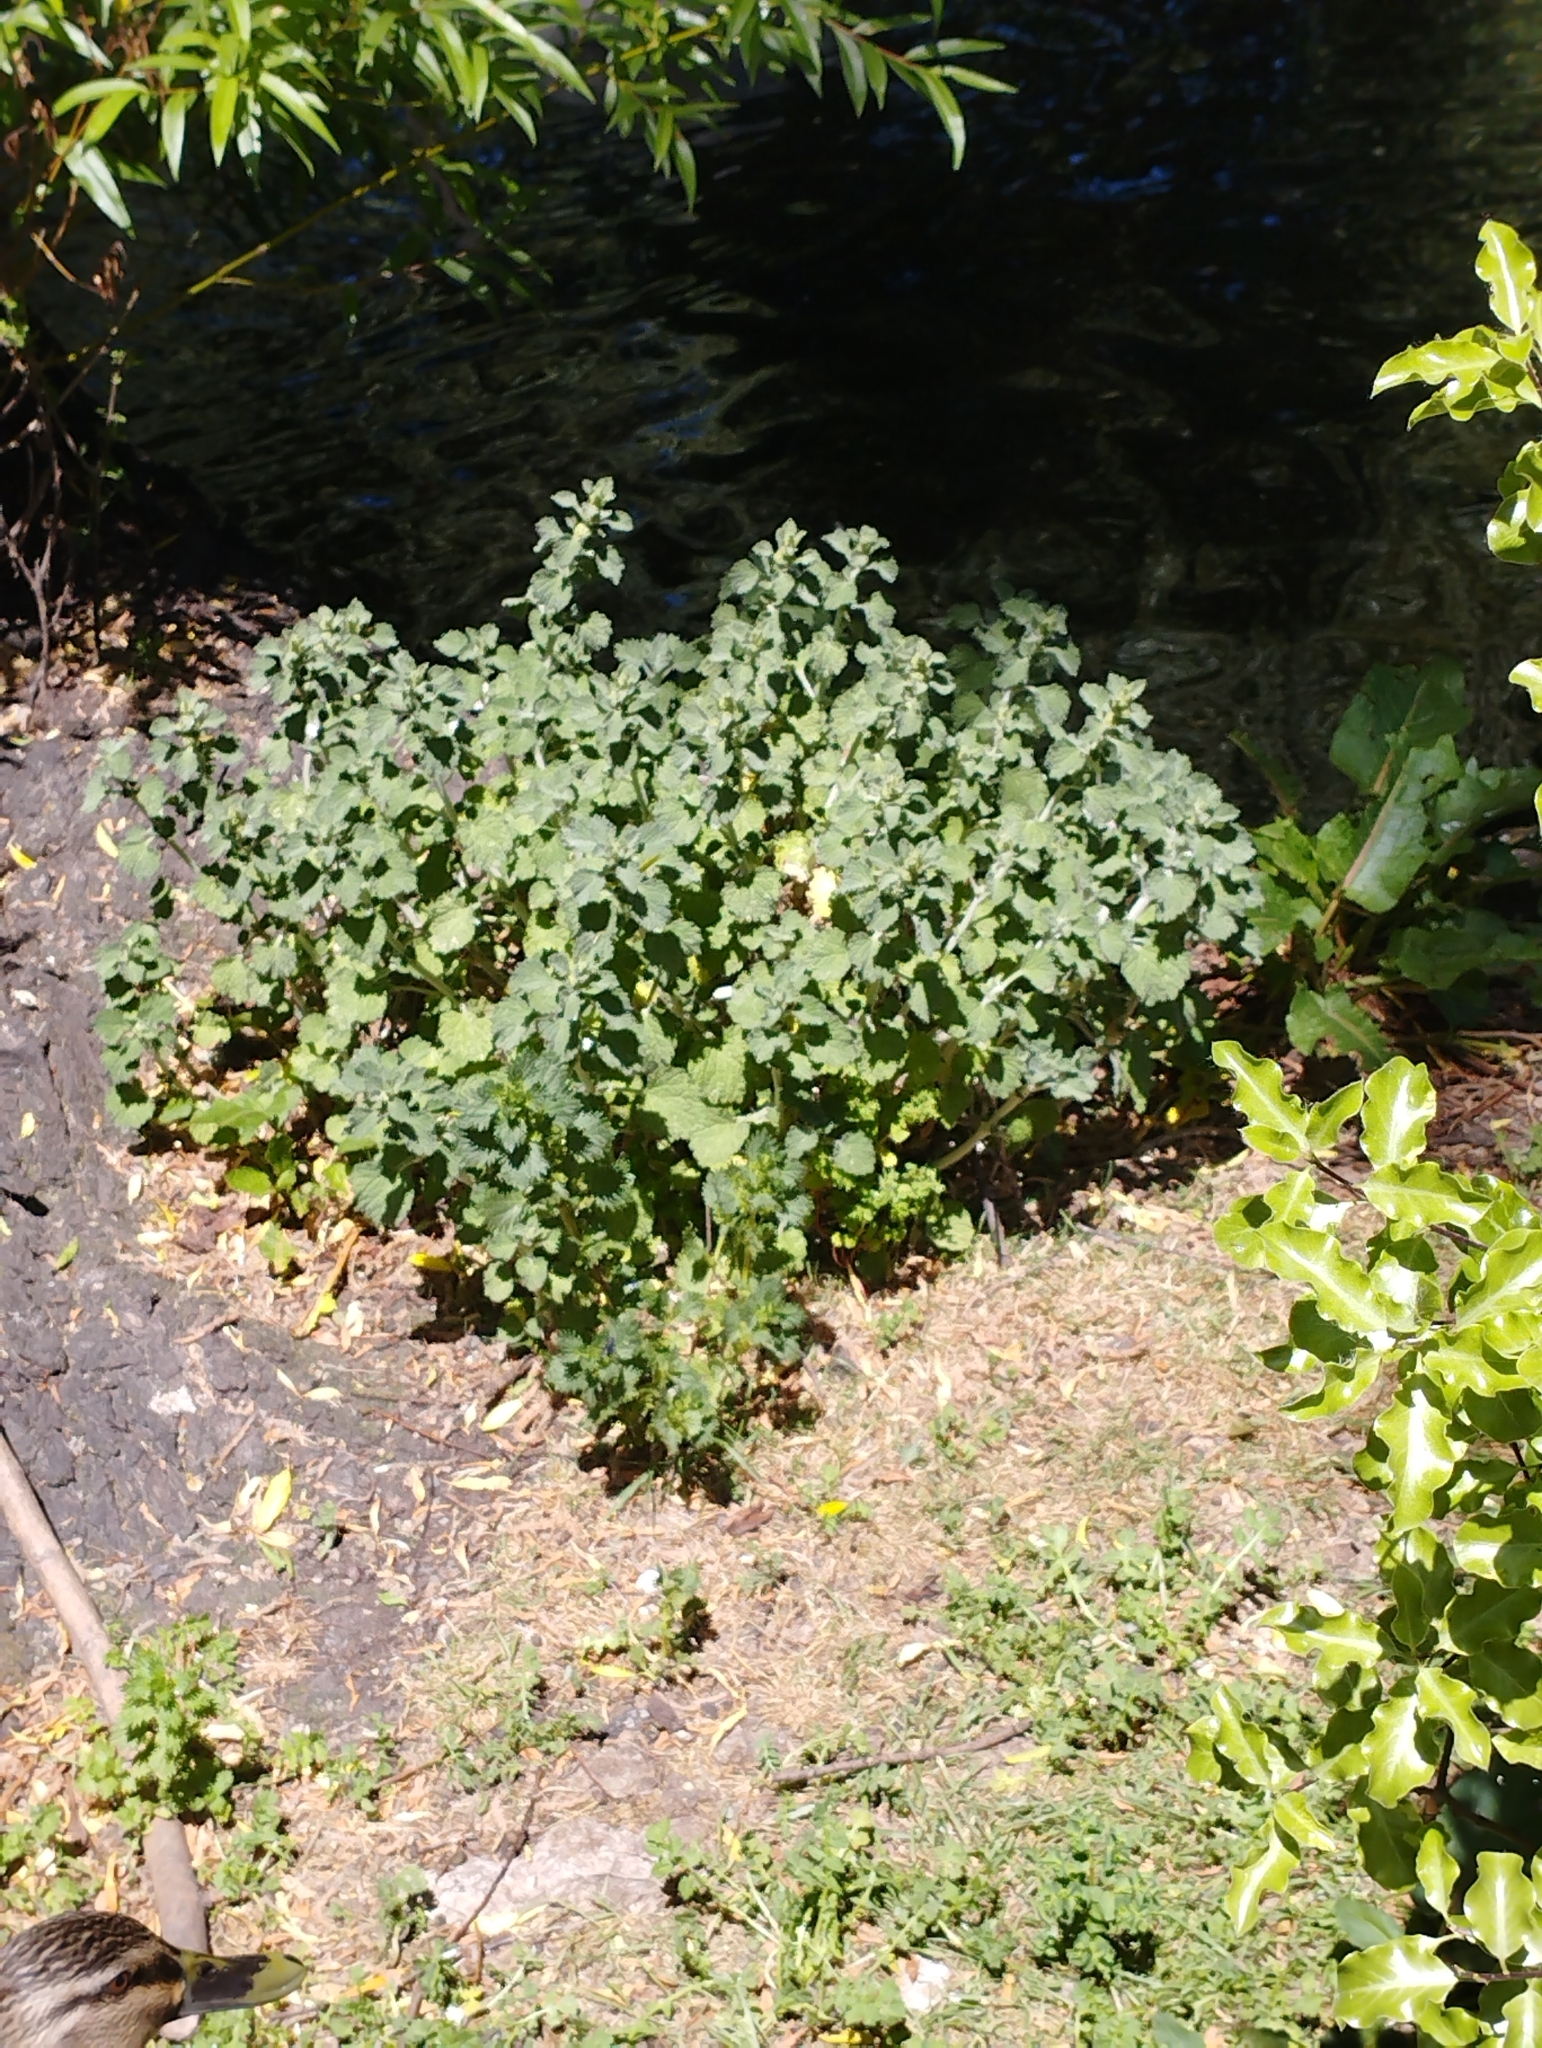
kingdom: Plantae
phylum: Tracheophyta
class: Magnoliopsida
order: Lamiales
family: Lamiaceae
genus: Marrubium
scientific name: Marrubium vulgare
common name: Horehound
